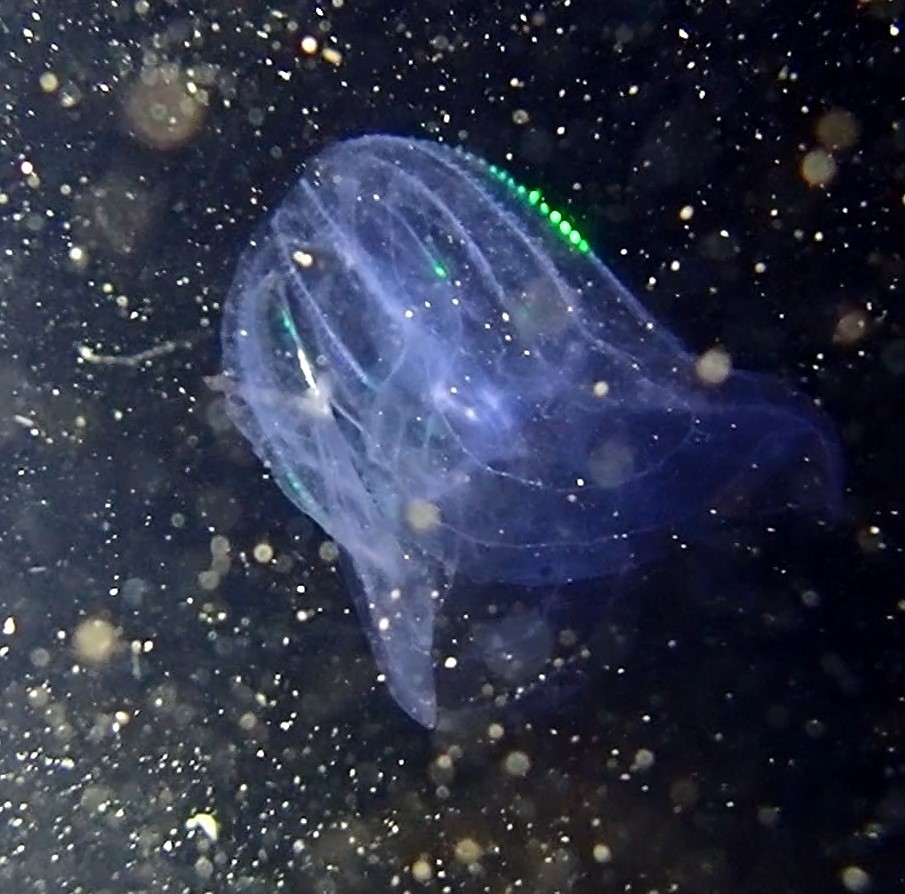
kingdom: Animalia
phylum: Ctenophora
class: Tentaculata
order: Lobata
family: Bolinopsidae
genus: Mnemiopsis
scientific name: Mnemiopsis leidyi
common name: American comb jelly
